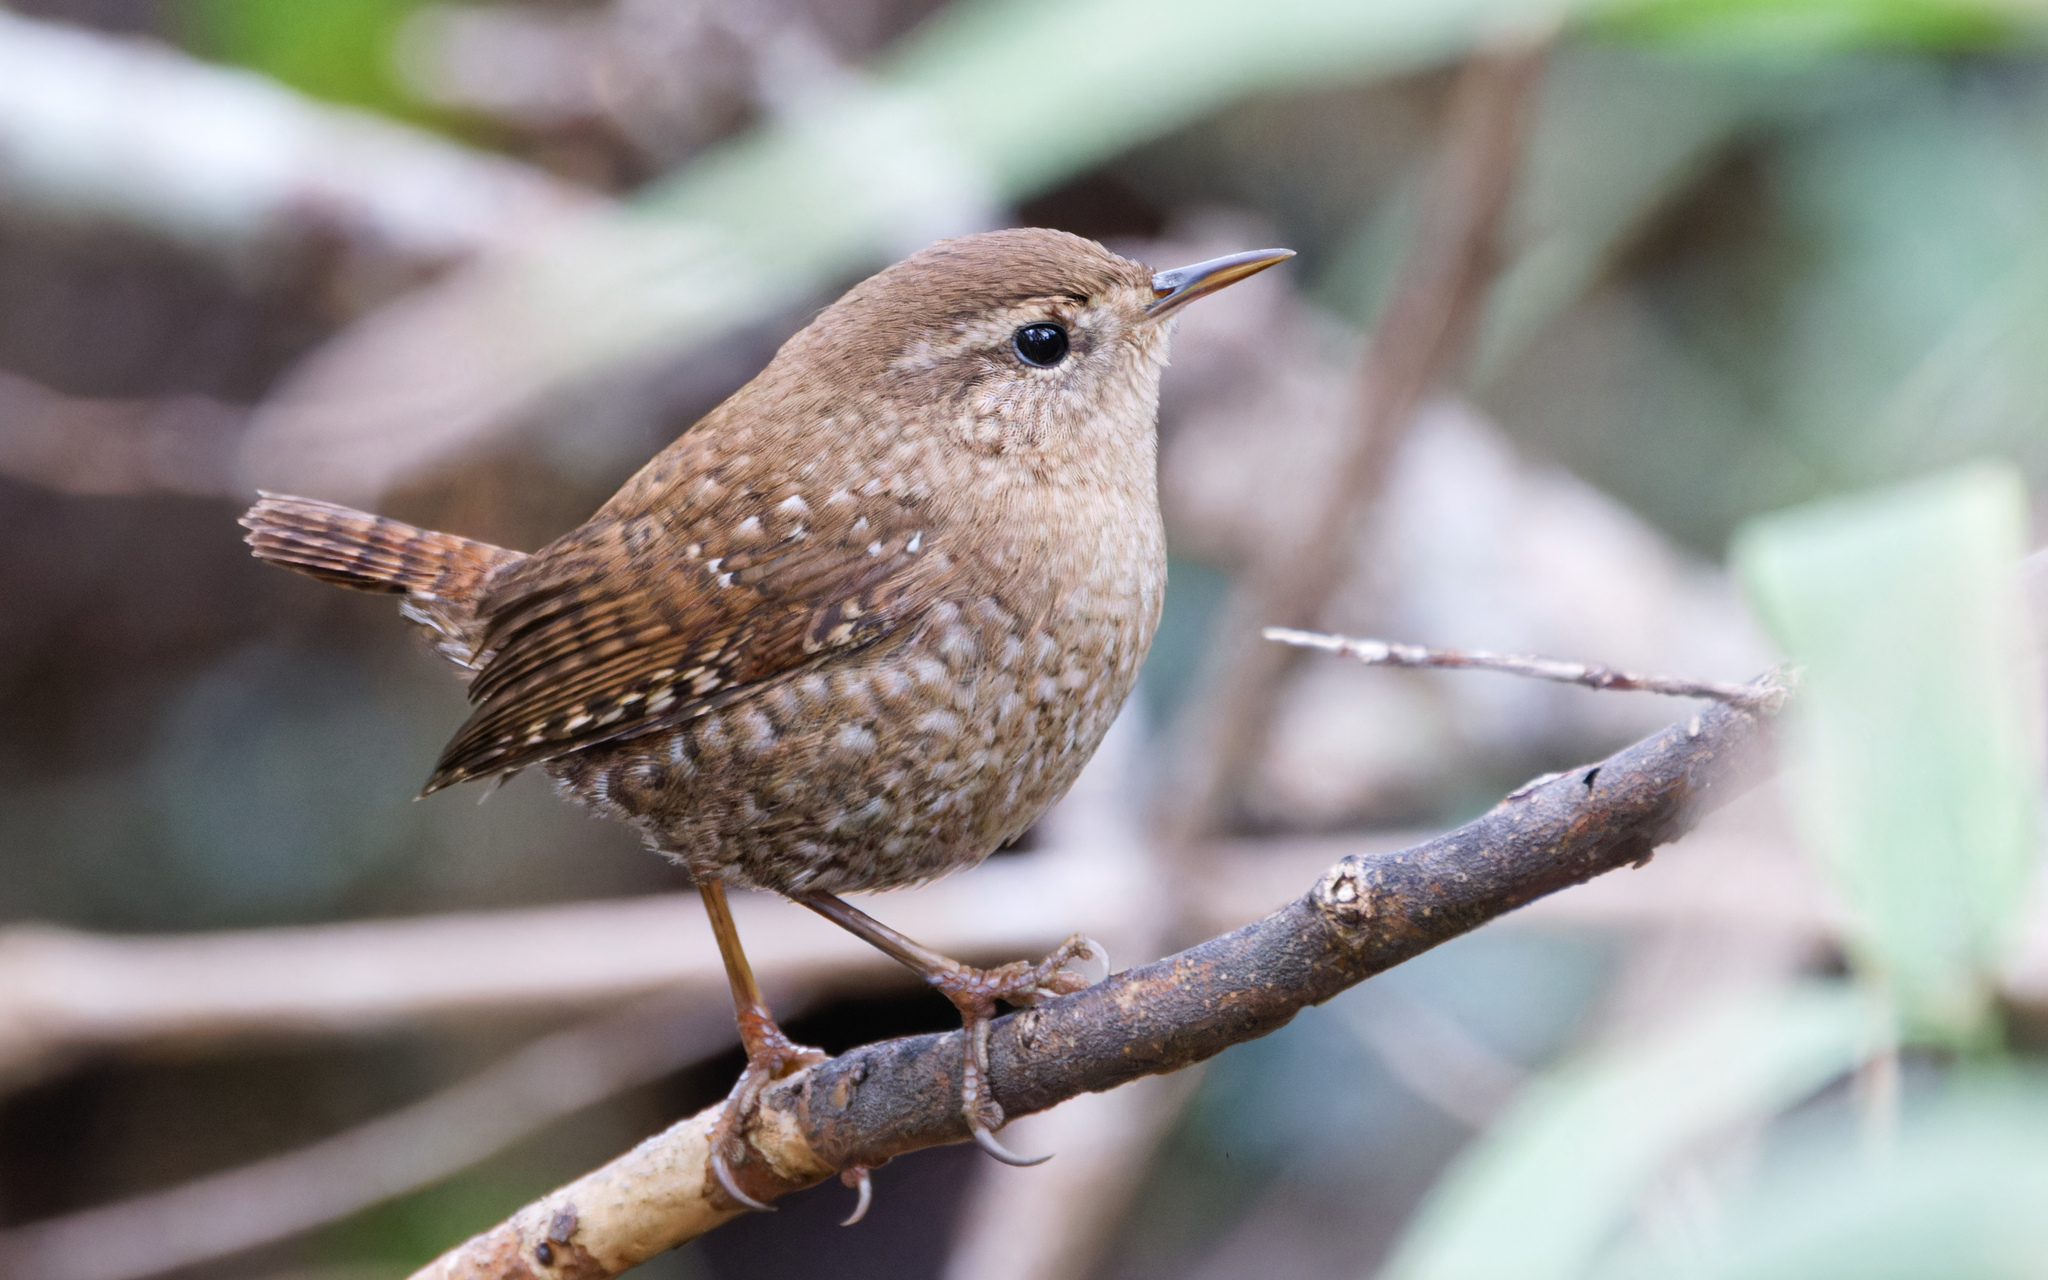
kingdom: Animalia
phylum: Chordata
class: Aves
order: Passeriformes
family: Troglodytidae
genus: Troglodytes
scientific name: Troglodytes hiemalis
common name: Winter wren
